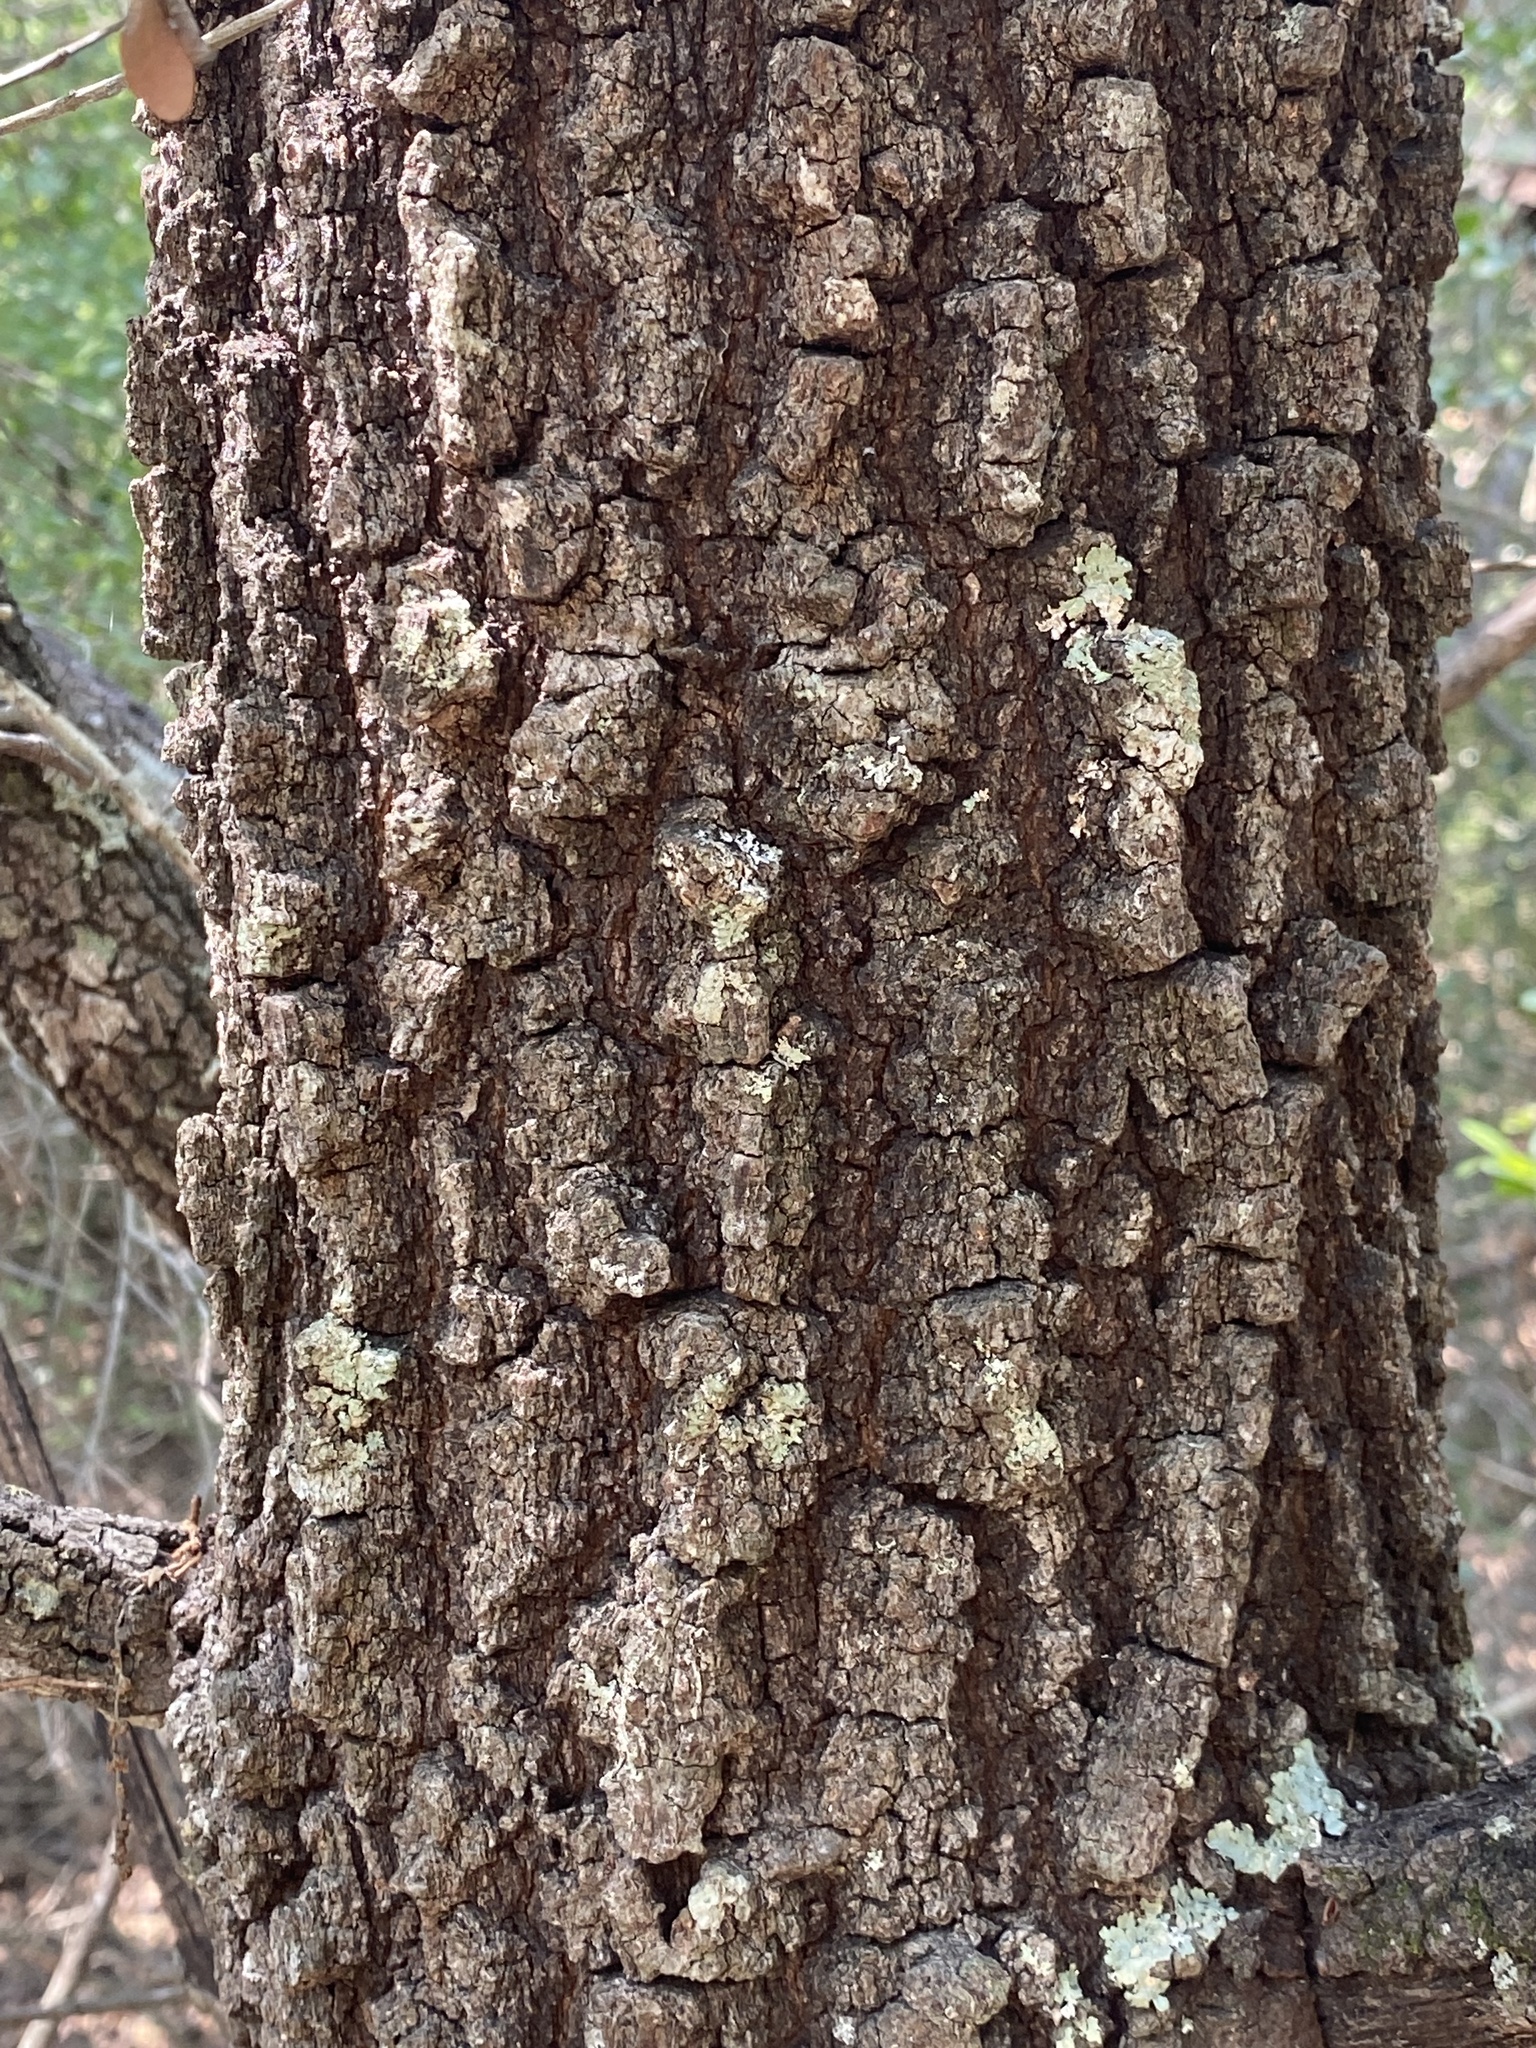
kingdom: Plantae
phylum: Tracheophyta
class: Magnoliopsida
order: Fagales
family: Fagaceae
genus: Quercus
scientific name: Quercus marilandica
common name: Blackjack oak
